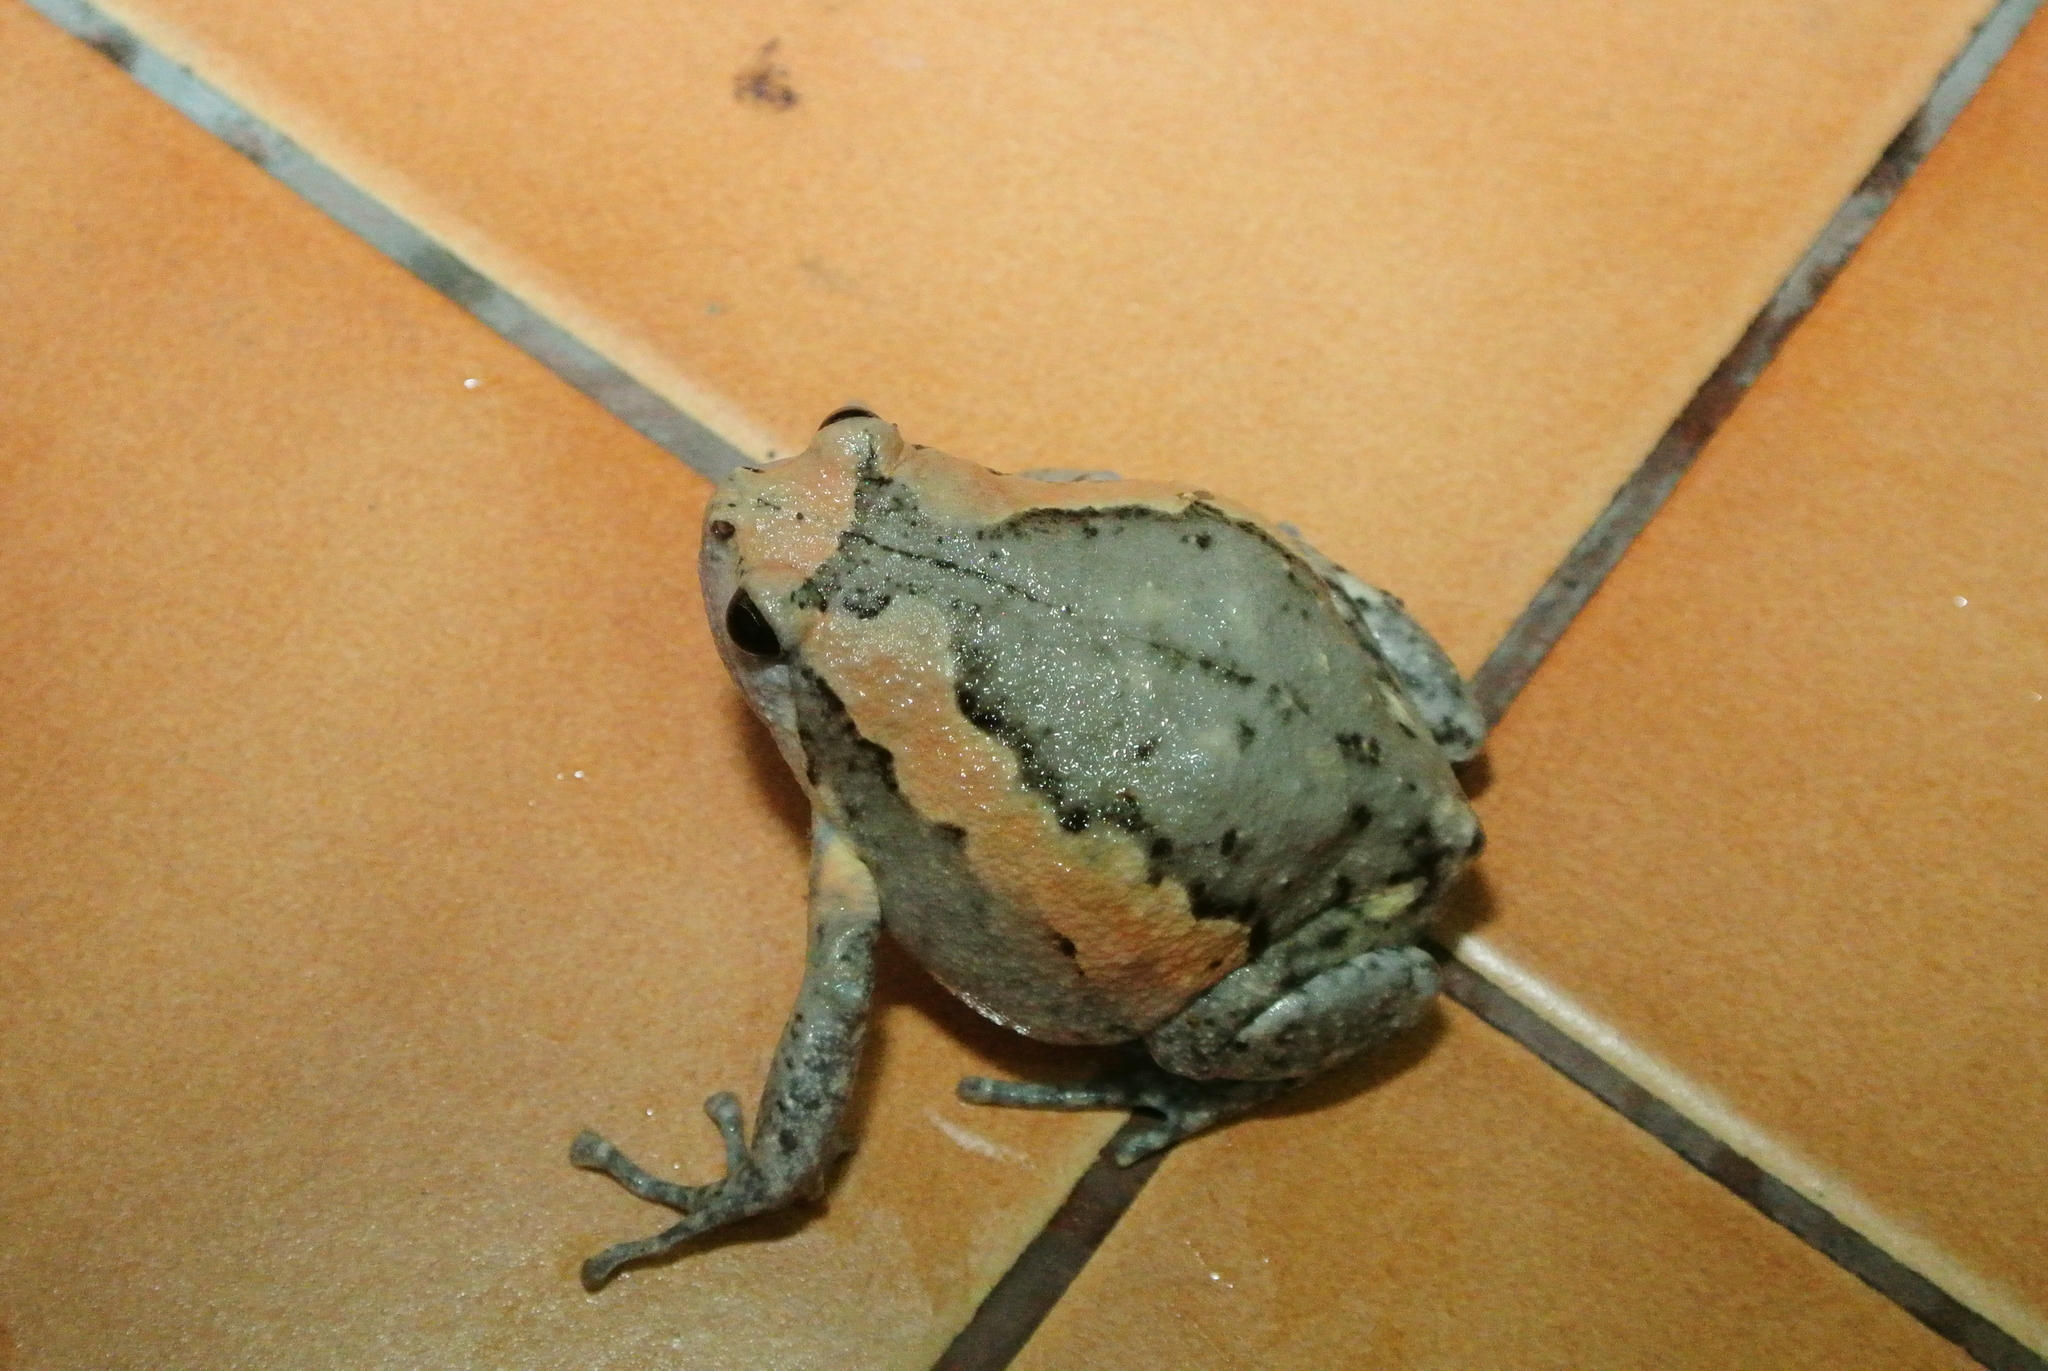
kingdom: Animalia
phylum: Chordata
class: Amphibia
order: Anura
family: Microhylidae
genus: Kaloula
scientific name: Kaloula pulchra
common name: Common,banded bullfrog
